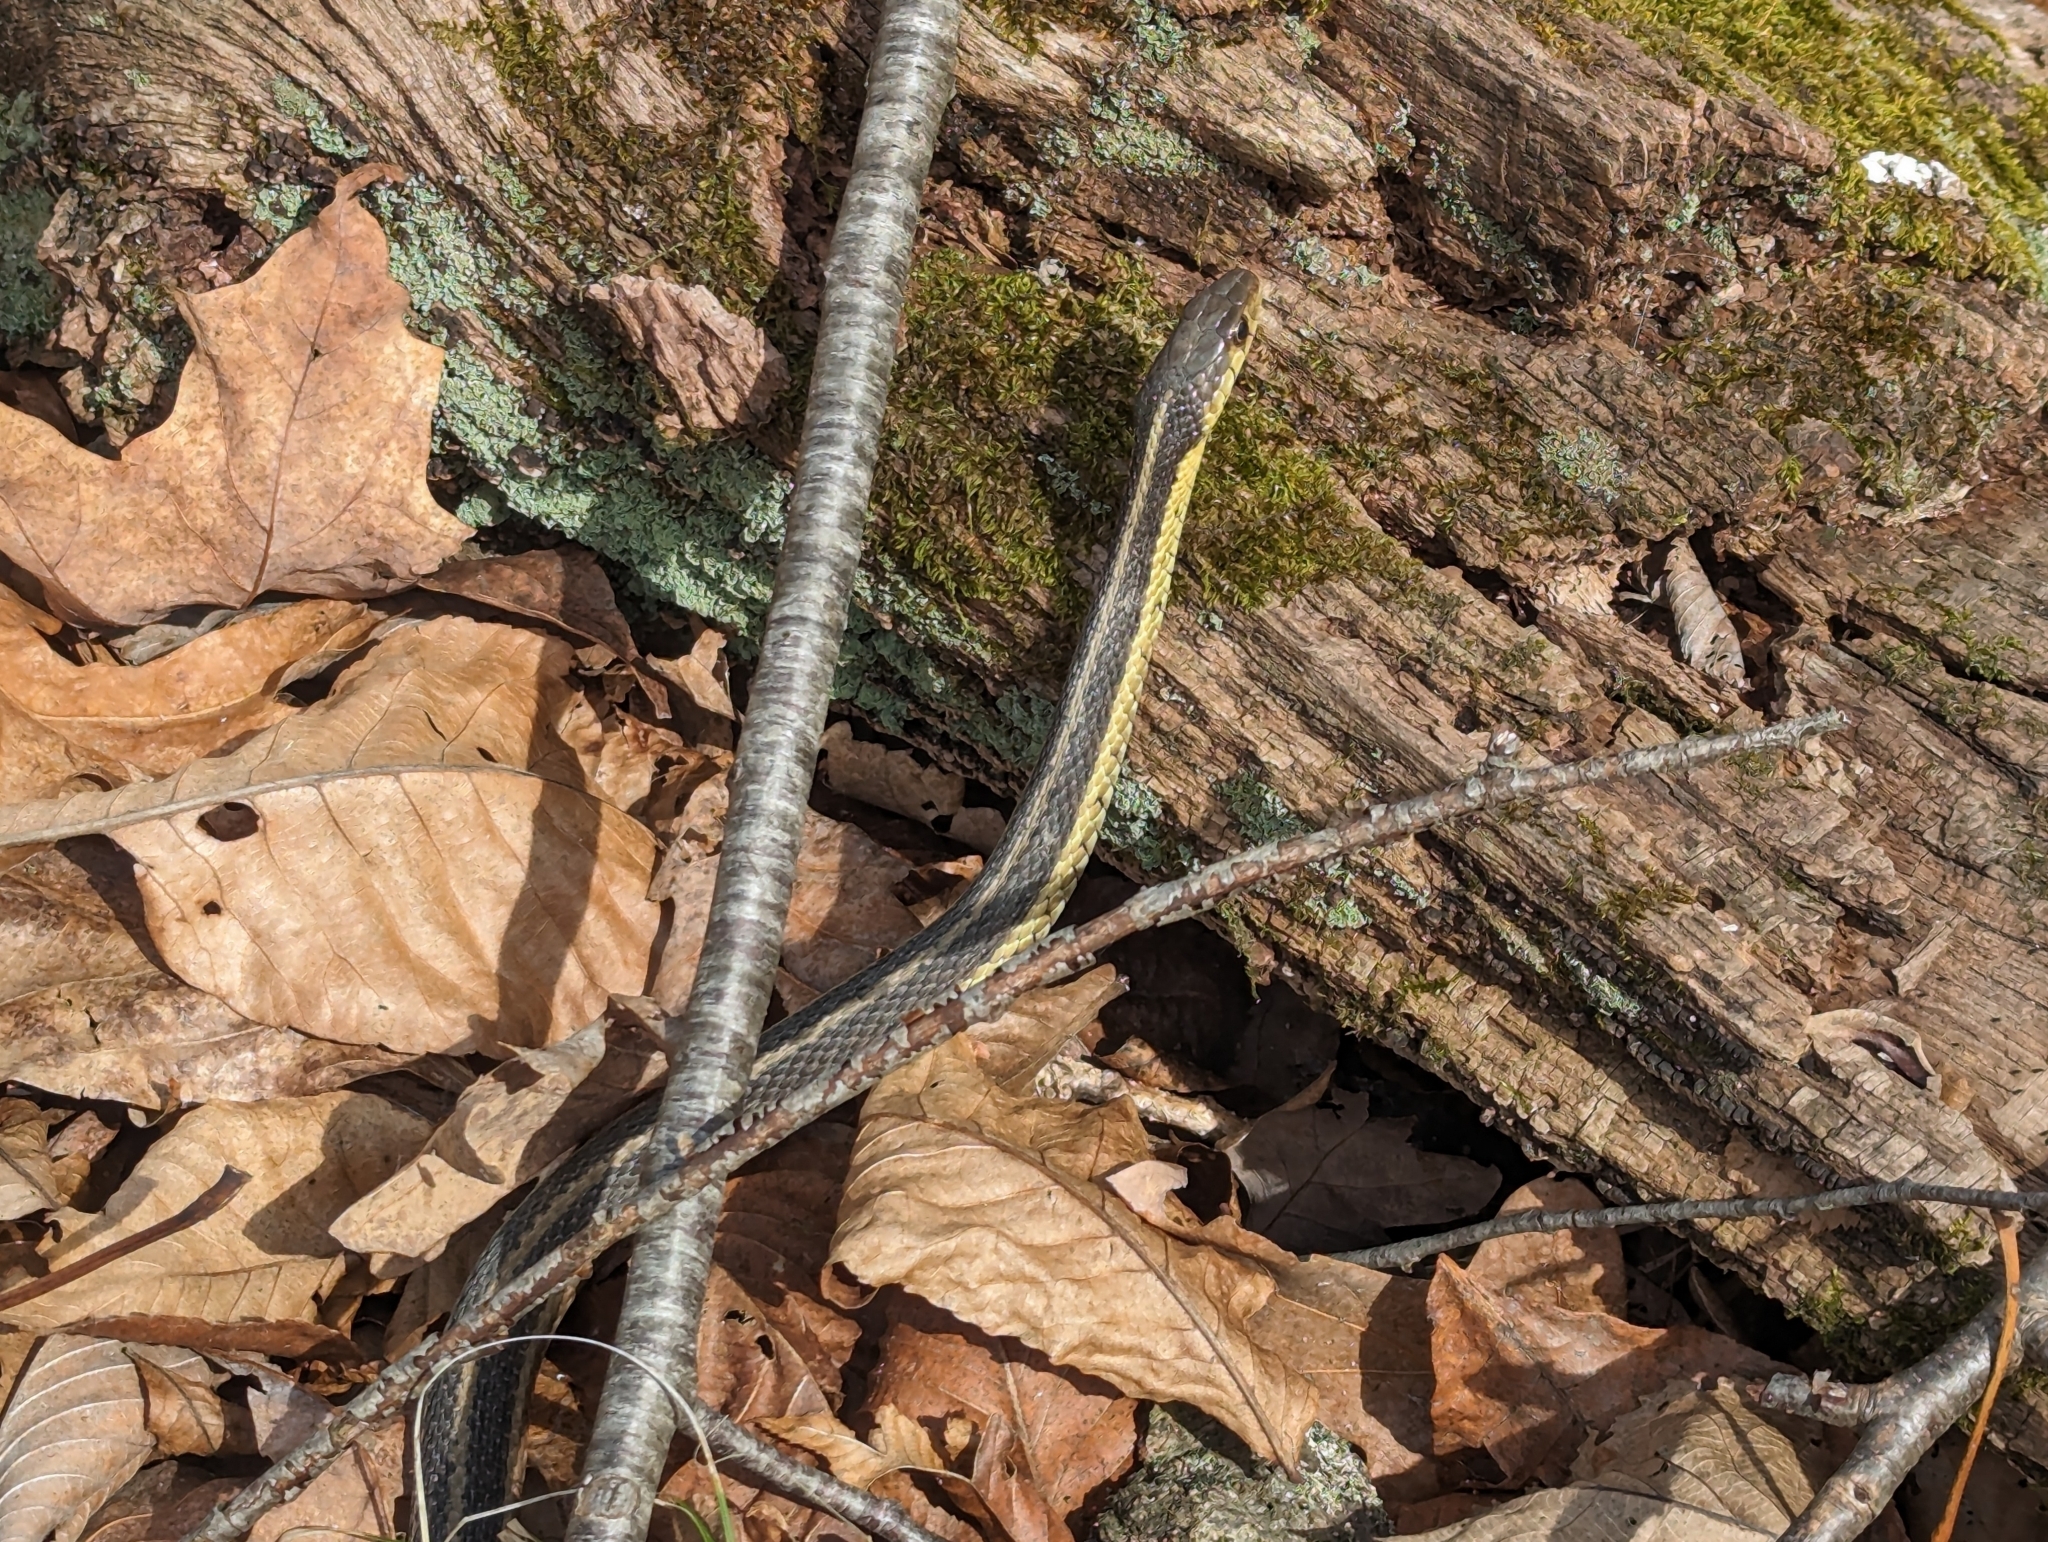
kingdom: Animalia
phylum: Chordata
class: Squamata
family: Colubridae
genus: Thamnophis
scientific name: Thamnophis sirtalis
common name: Common garter snake
